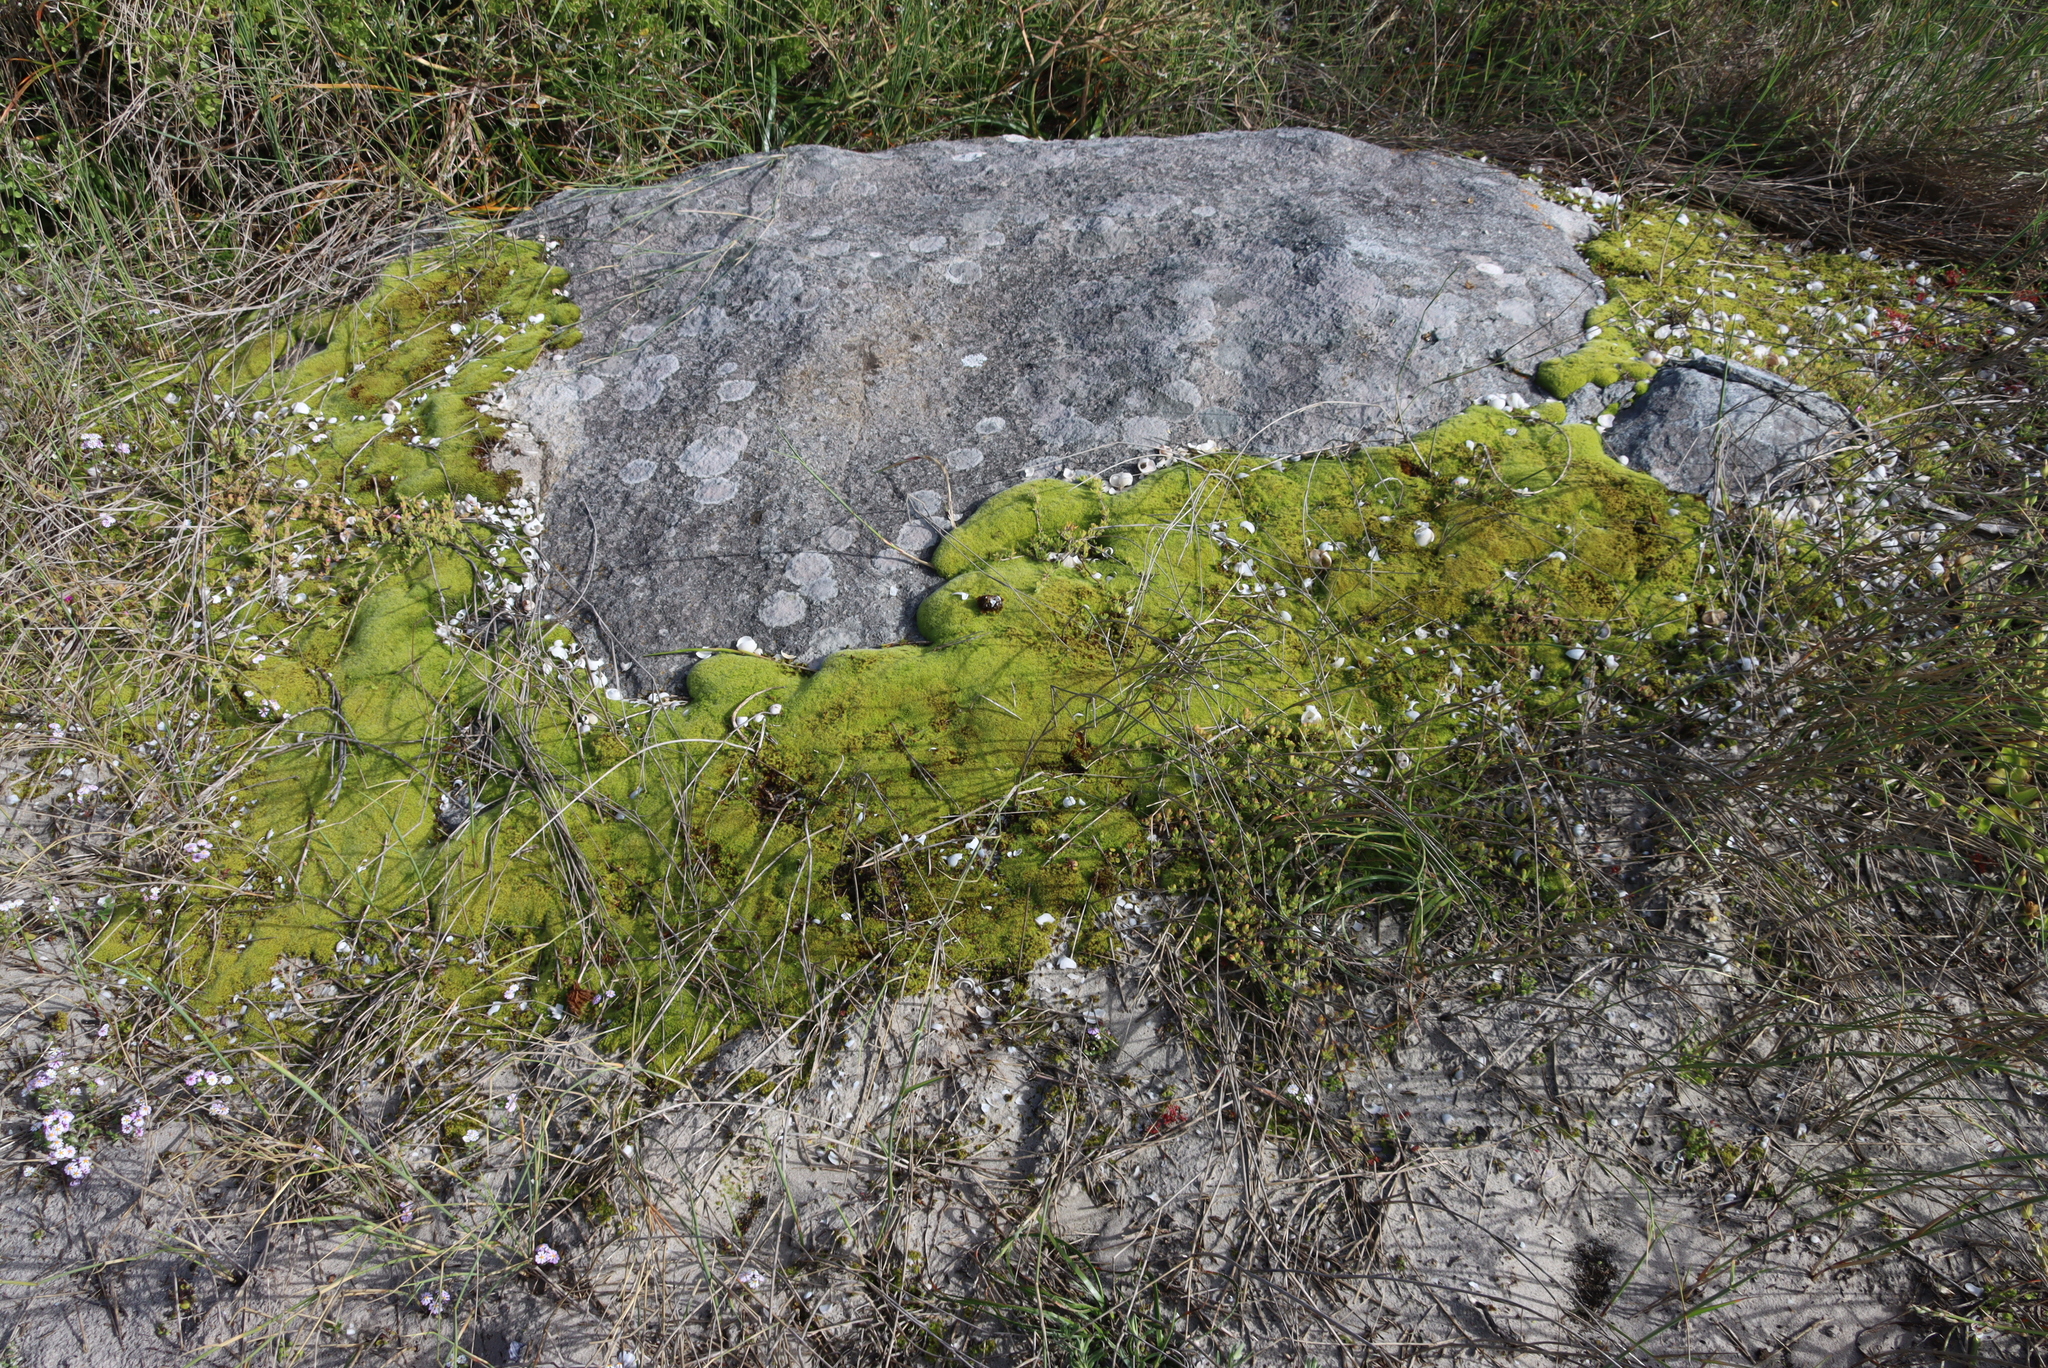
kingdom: Plantae
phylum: Bryophyta
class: Bryopsida
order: Pottiales
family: Pottiaceae
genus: Pseudocrossidium
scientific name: Pseudocrossidium crinitum
